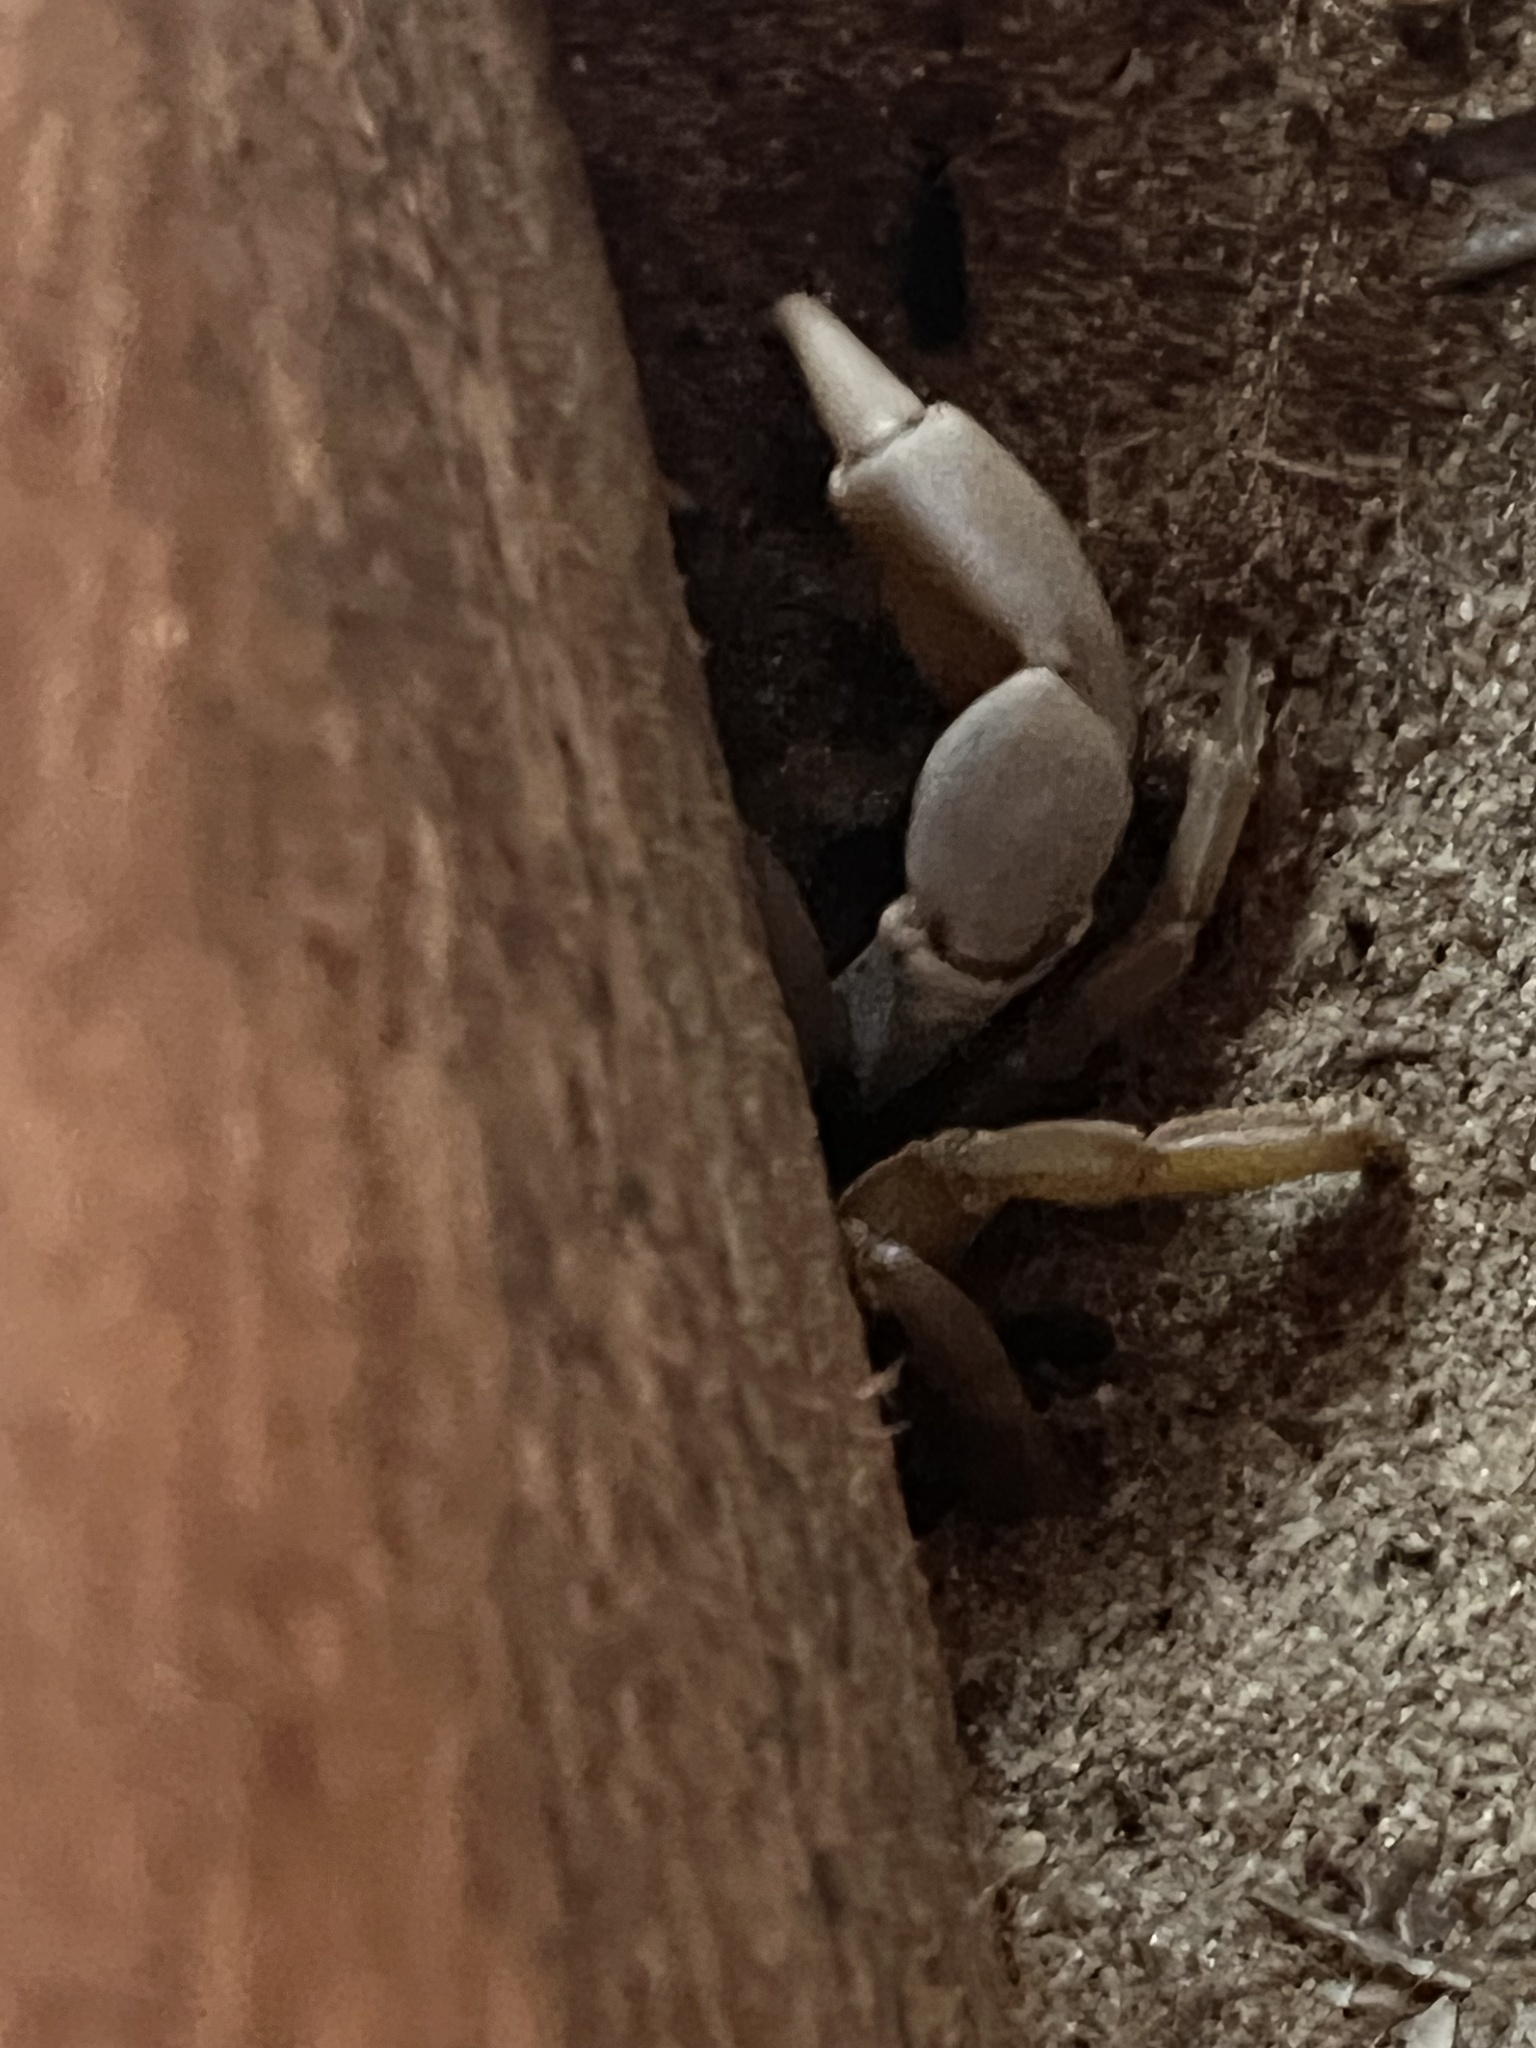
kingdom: Animalia
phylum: Arthropoda
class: Malacostraca
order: Decapoda
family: Gecarcinidae
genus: Gecarcinus
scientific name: Gecarcinus quadratus
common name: Halloween crab
